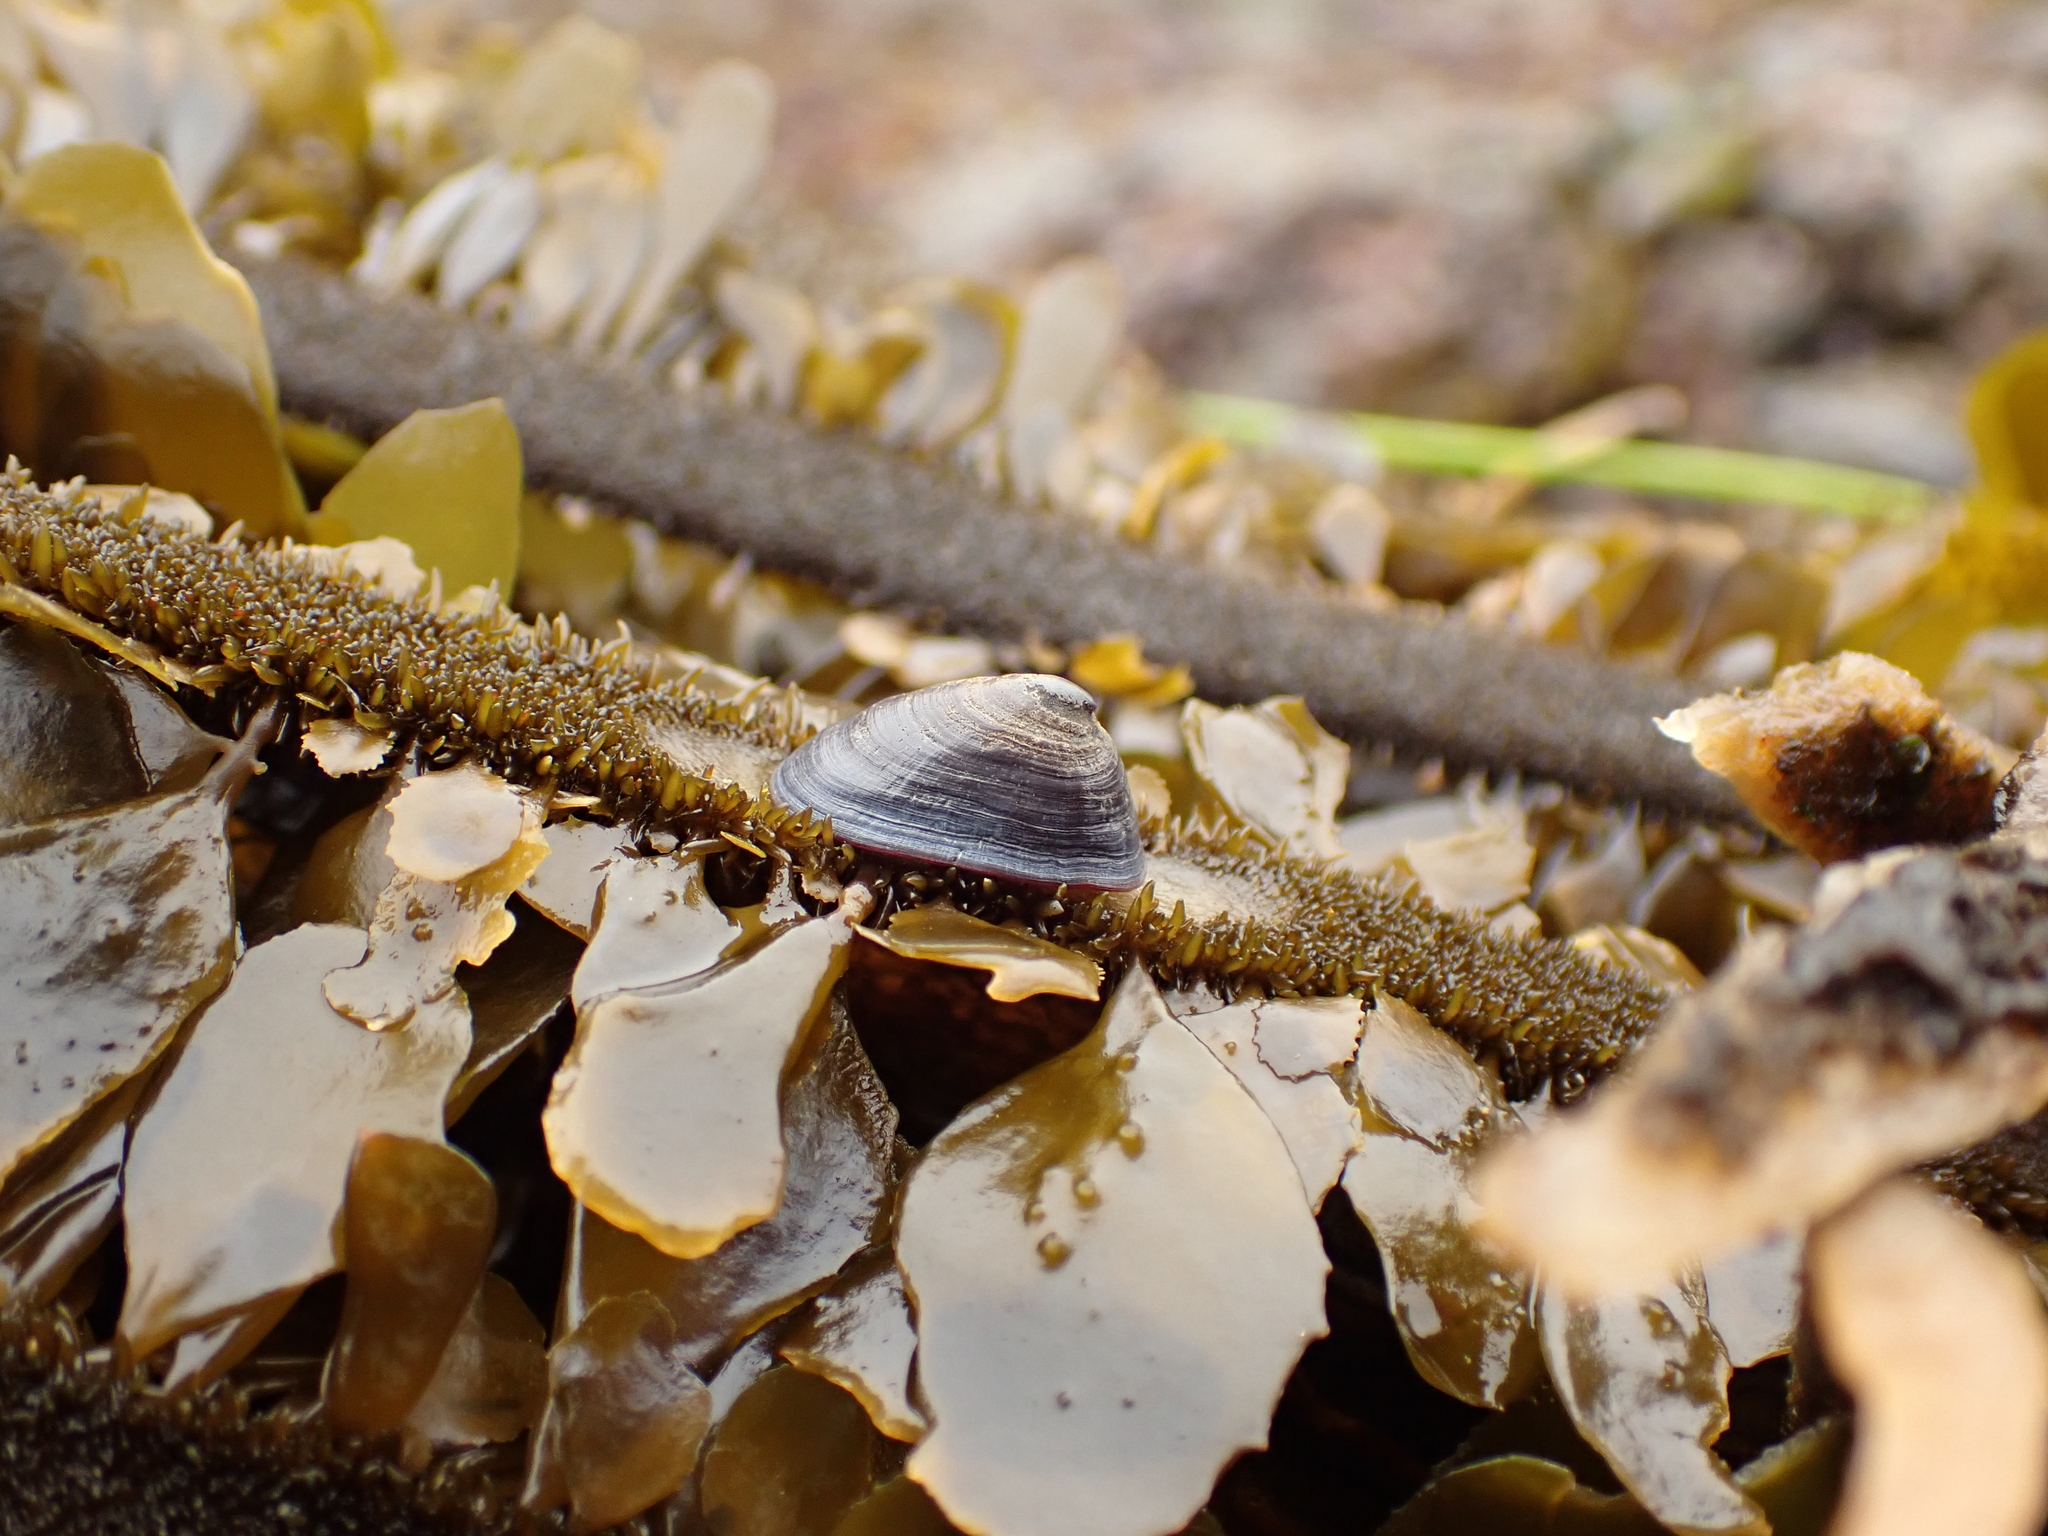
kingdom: Animalia
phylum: Mollusca
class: Gastropoda
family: Lottiidae
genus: Discurria
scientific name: Discurria insessa
